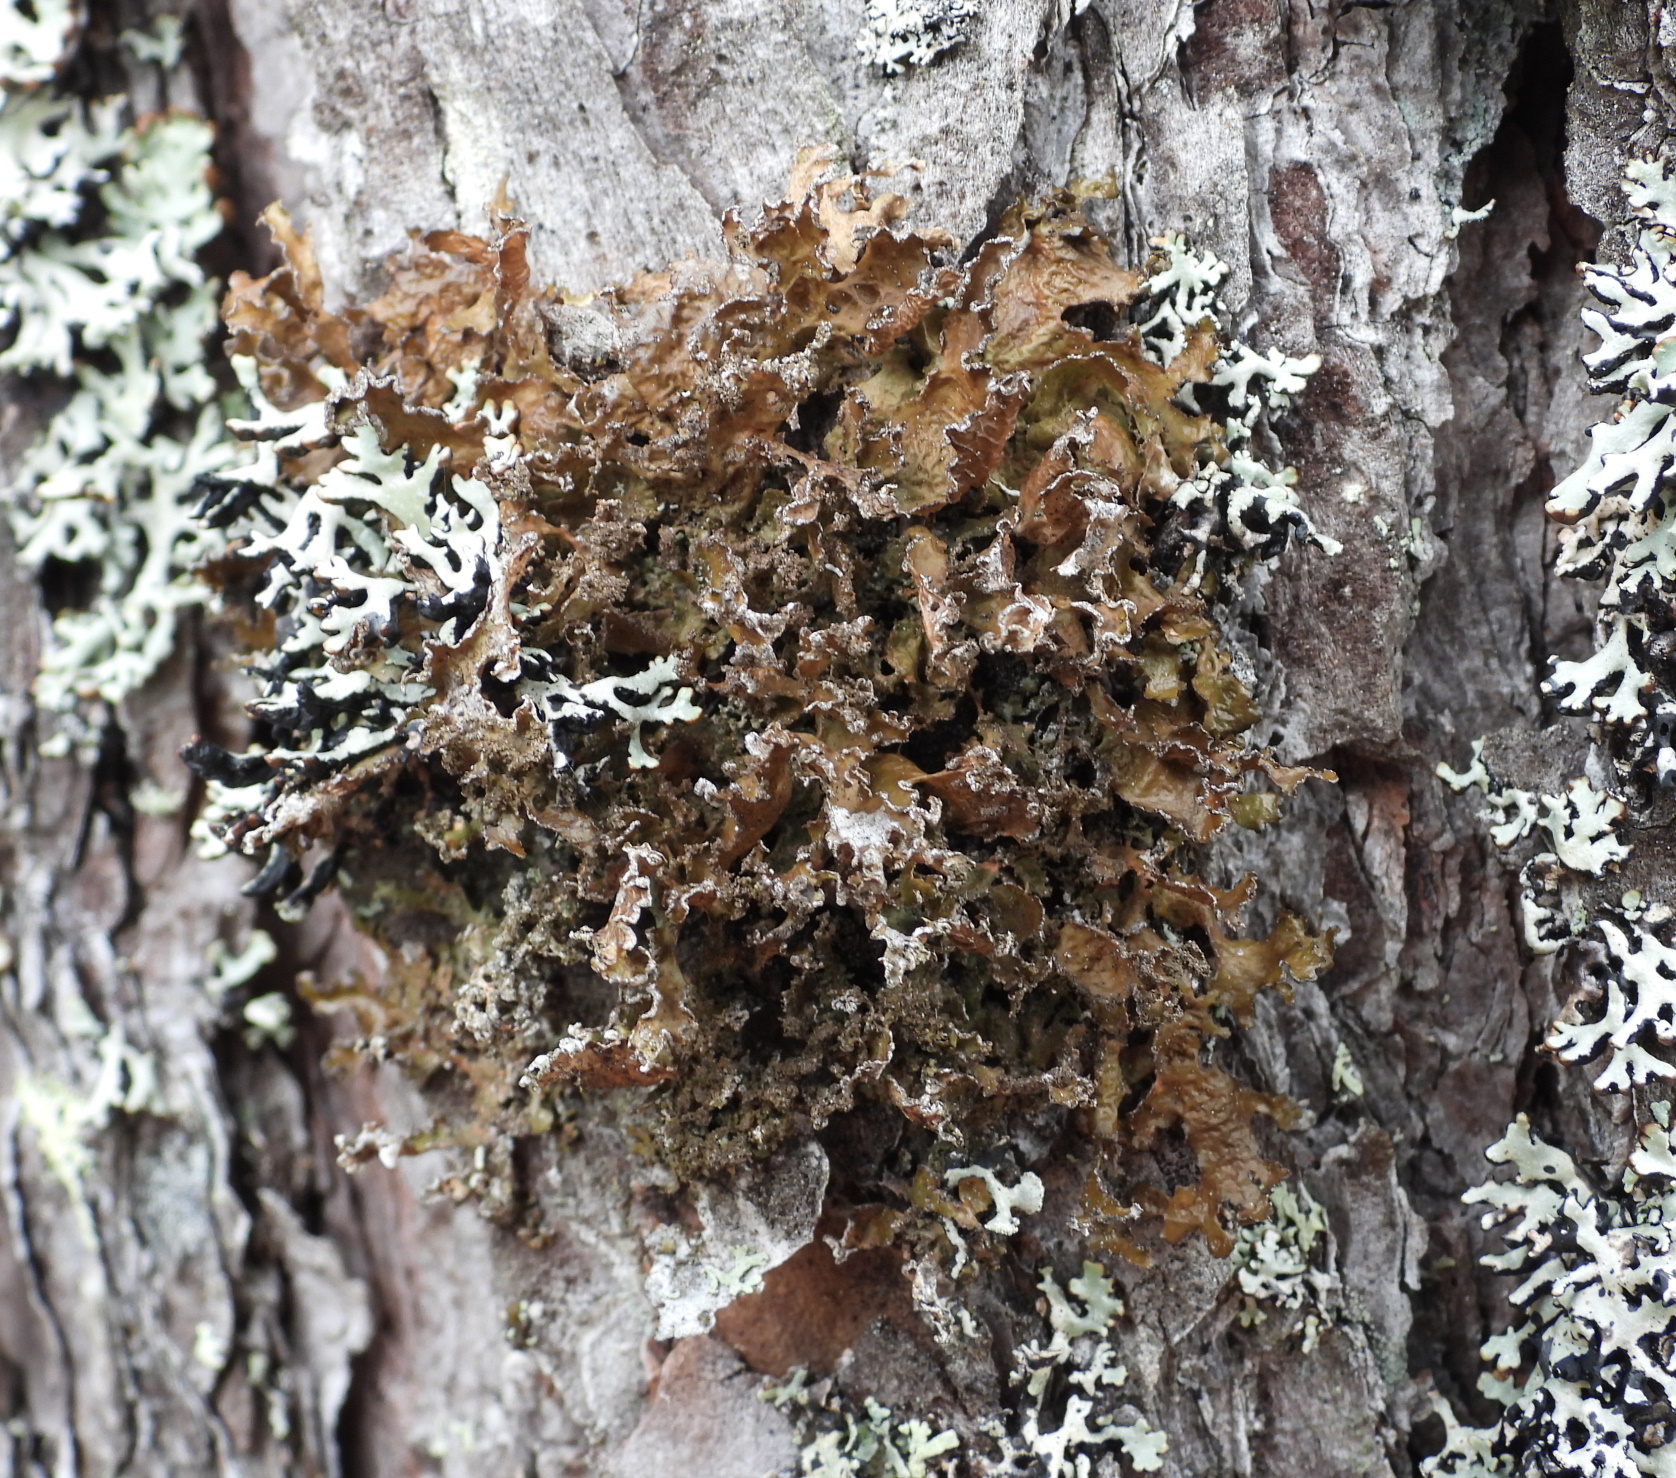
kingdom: Fungi
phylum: Ascomycota
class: Lecanoromycetes
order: Lecanorales
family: Parmeliaceae
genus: Nephromopsis
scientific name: Nephromopsis chlorophylla
